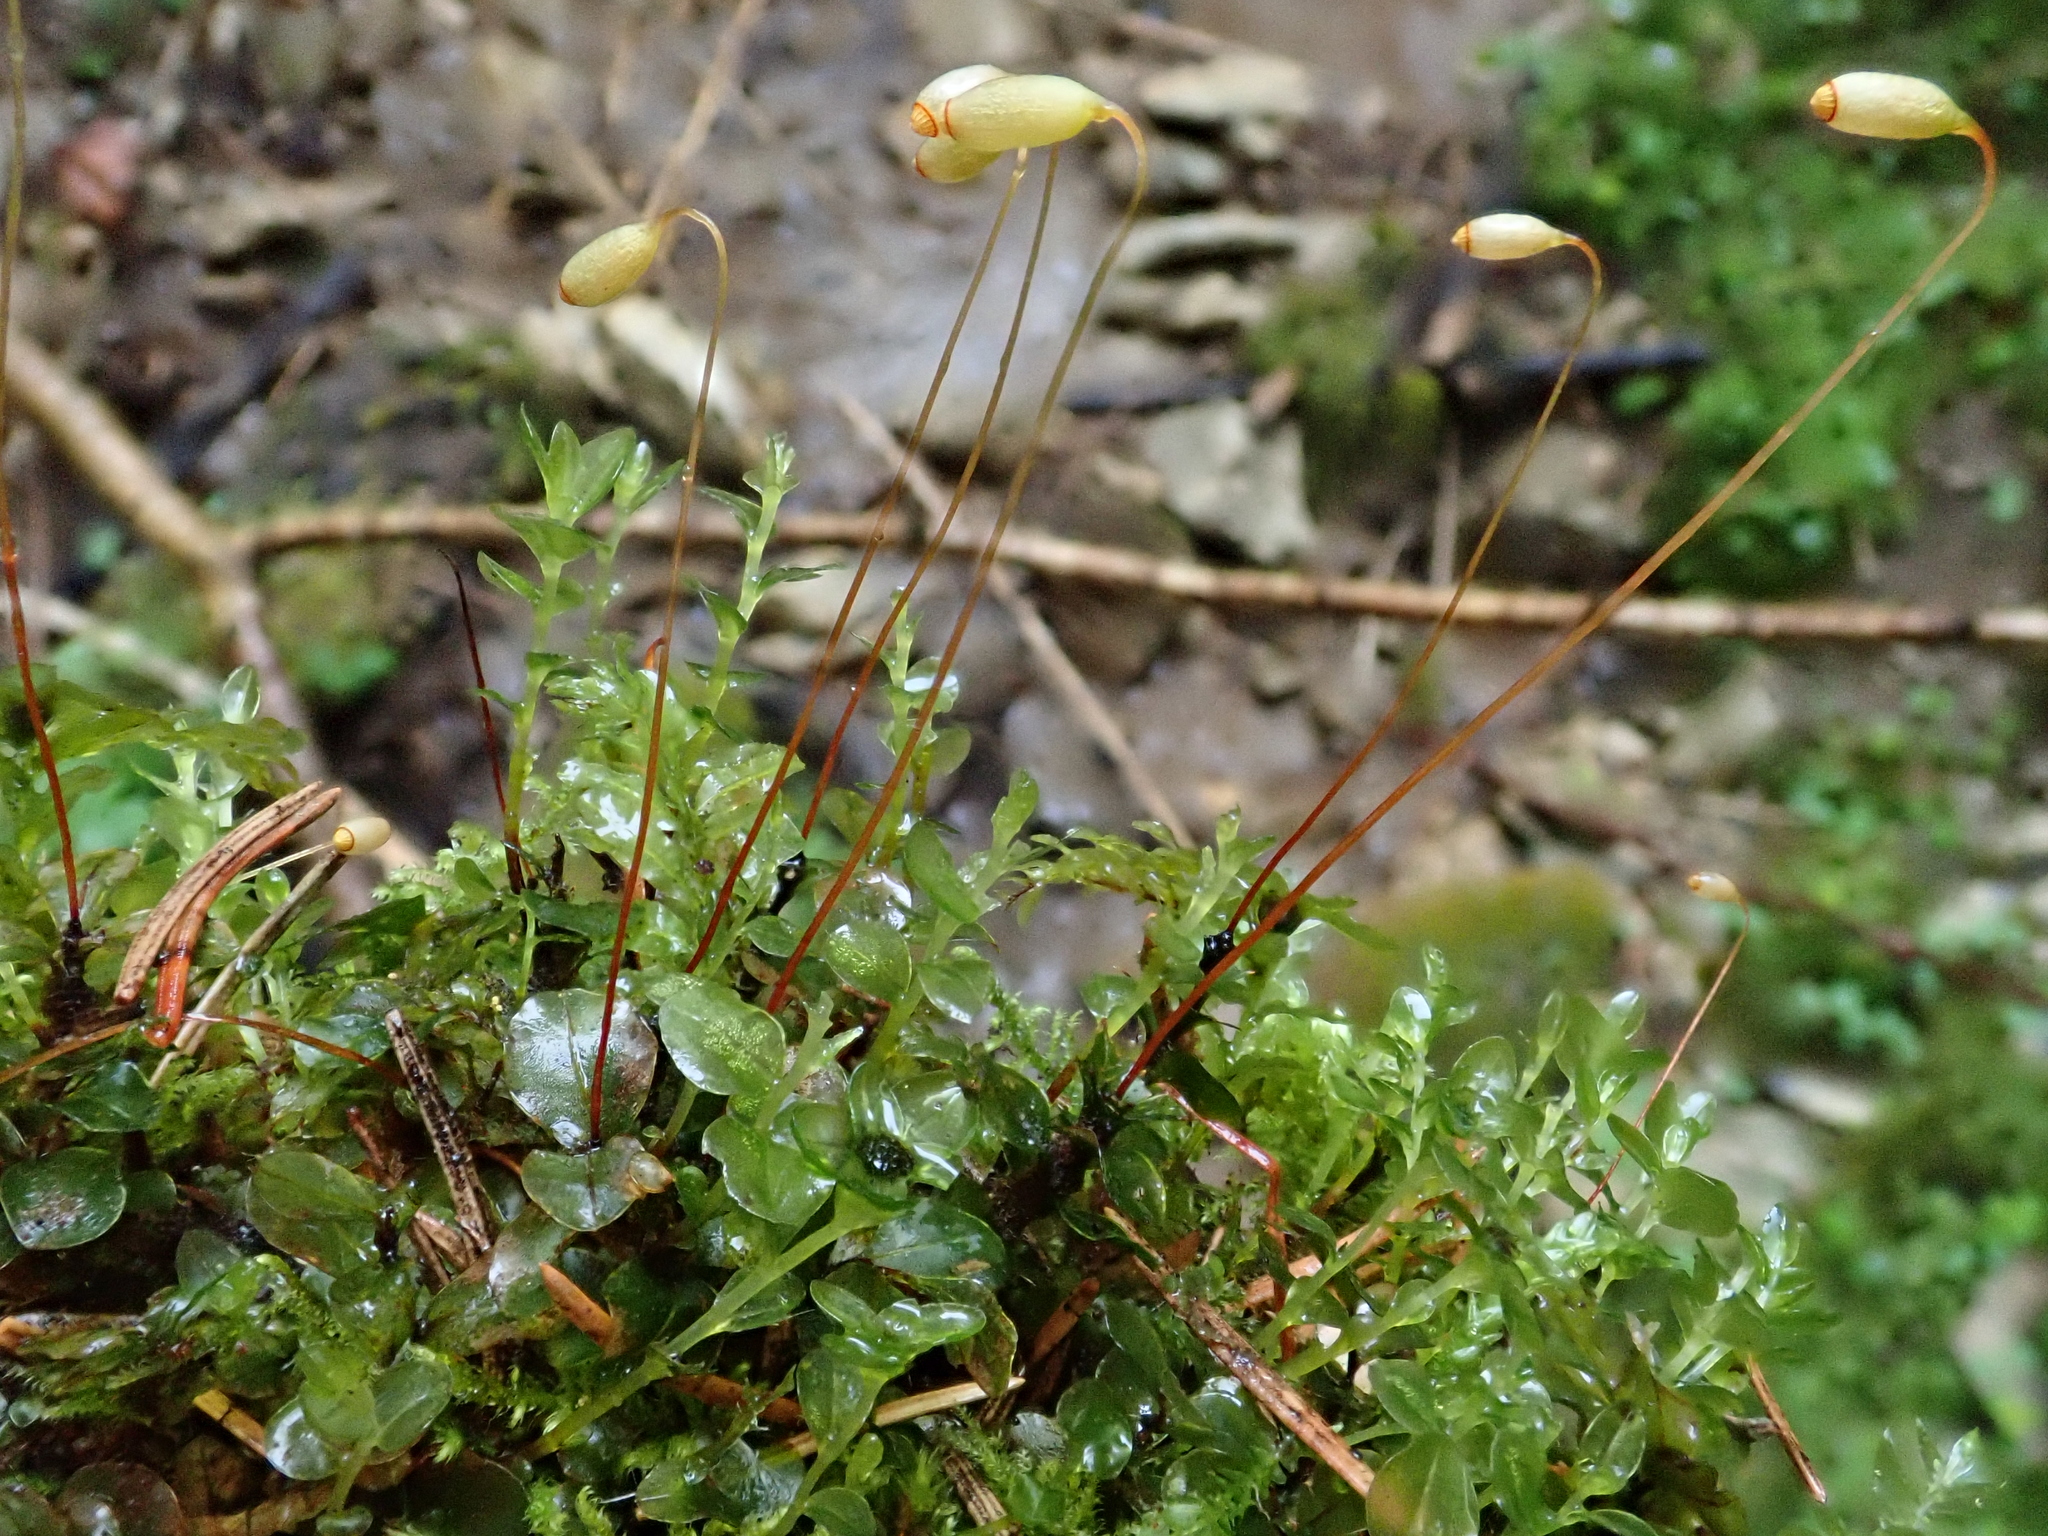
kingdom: Plantae
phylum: Bryophyta
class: Bryopsida
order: Bryales
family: Mniaceae
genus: Rhizomnium
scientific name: Rhizomnium punctatum
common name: Dotted leafy moss
